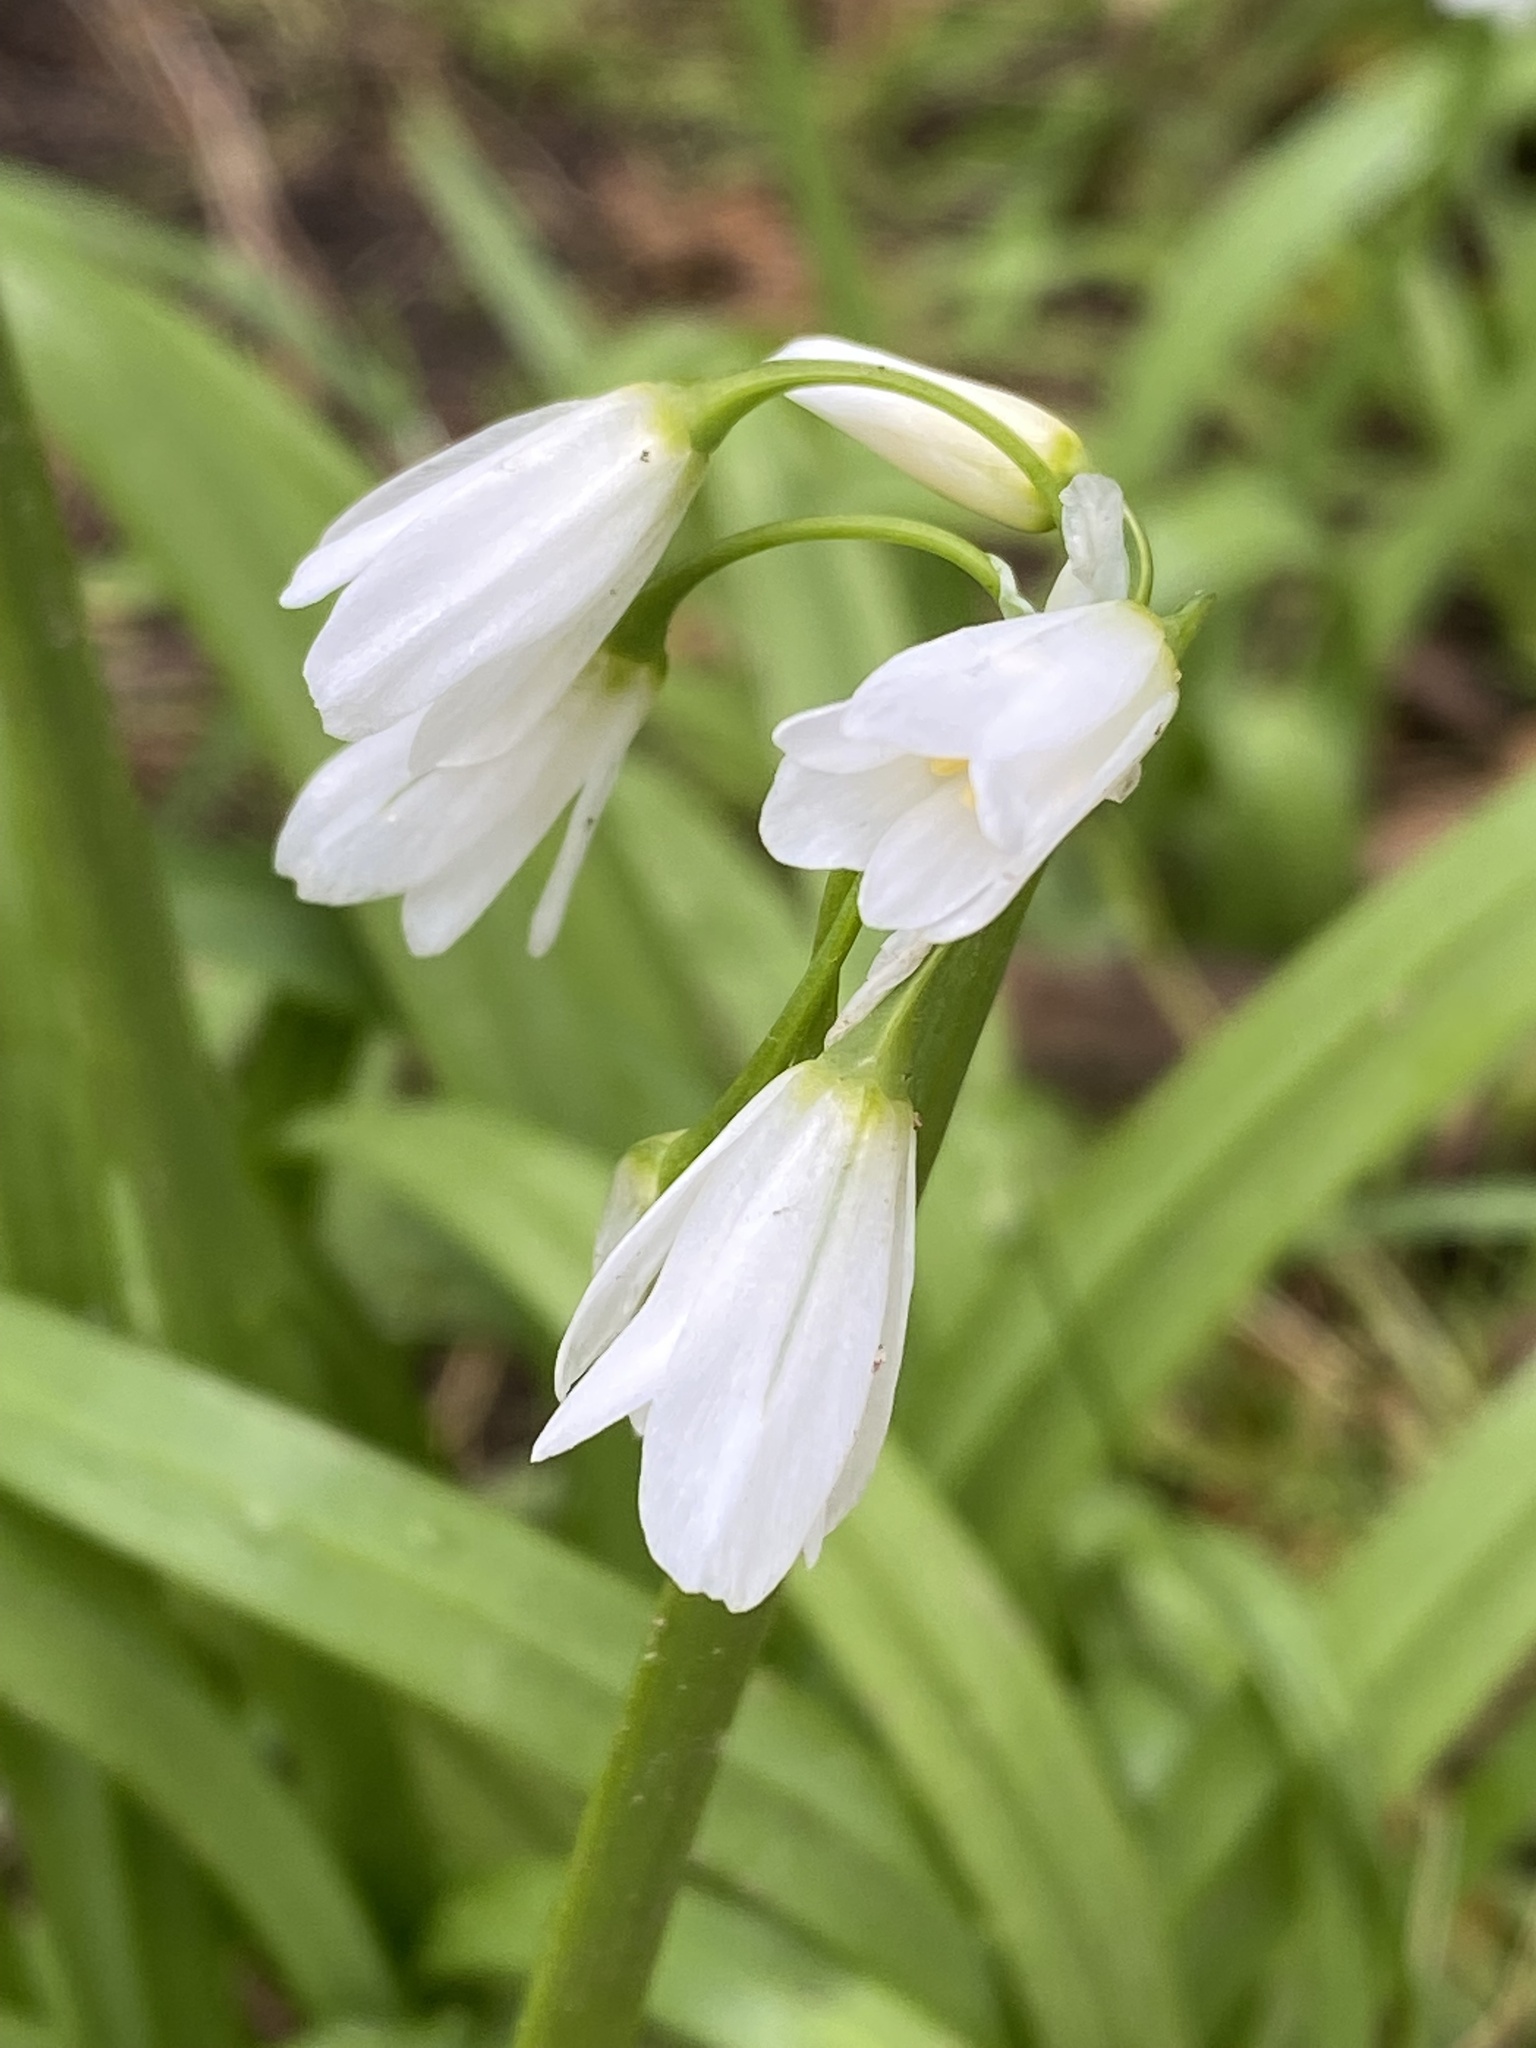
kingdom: Plantae
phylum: Tracheophyta
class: Liliopsida
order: Asparagales
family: Amaryllidaceae
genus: Allium
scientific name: Allium triquetrum
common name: Three-cornered garlic
